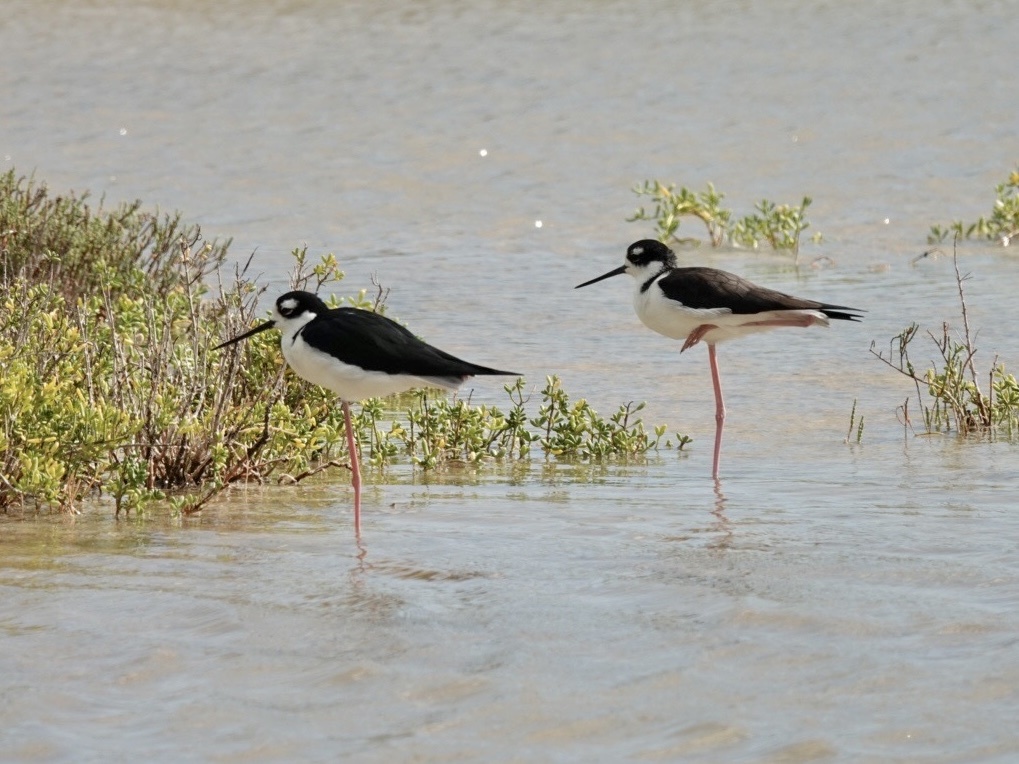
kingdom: Animalia
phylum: Chordata
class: Aves
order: Charadriiformes
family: Recurvirostridae
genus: Himantopus
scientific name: Himantopus mexicanus
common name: Black-necked stilt
